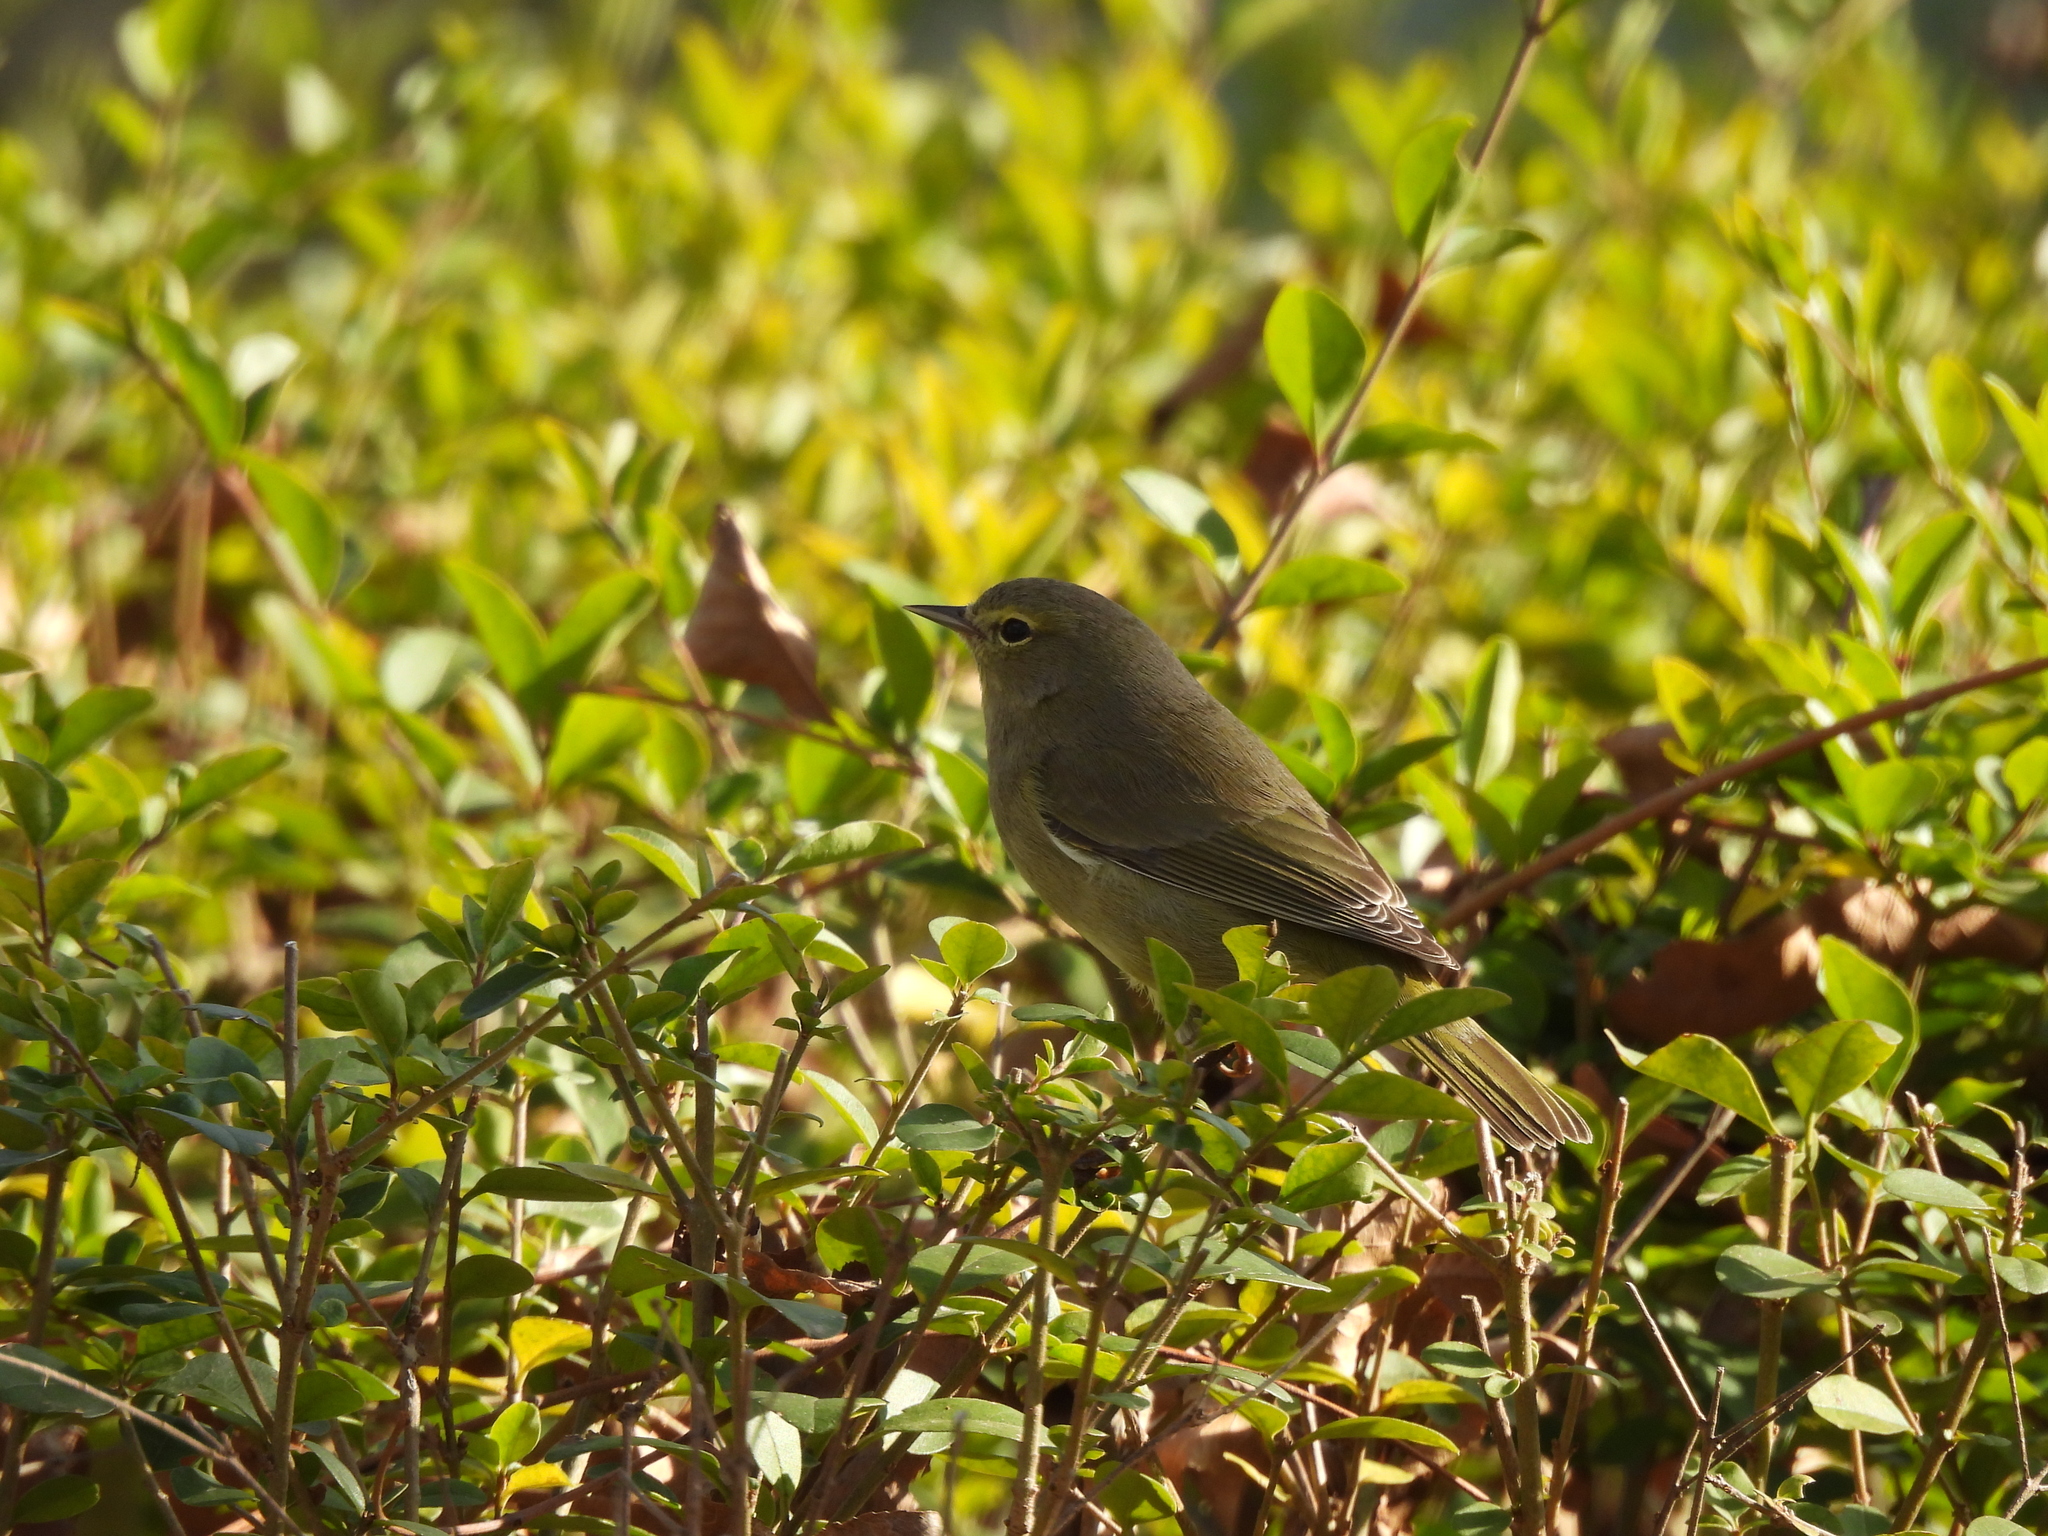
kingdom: Animalia
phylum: Chordata
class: Aves
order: Passeriformes
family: Parulidae
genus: Leiothlypis
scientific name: Leiothlypis celata
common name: Orange-crowned warbler
